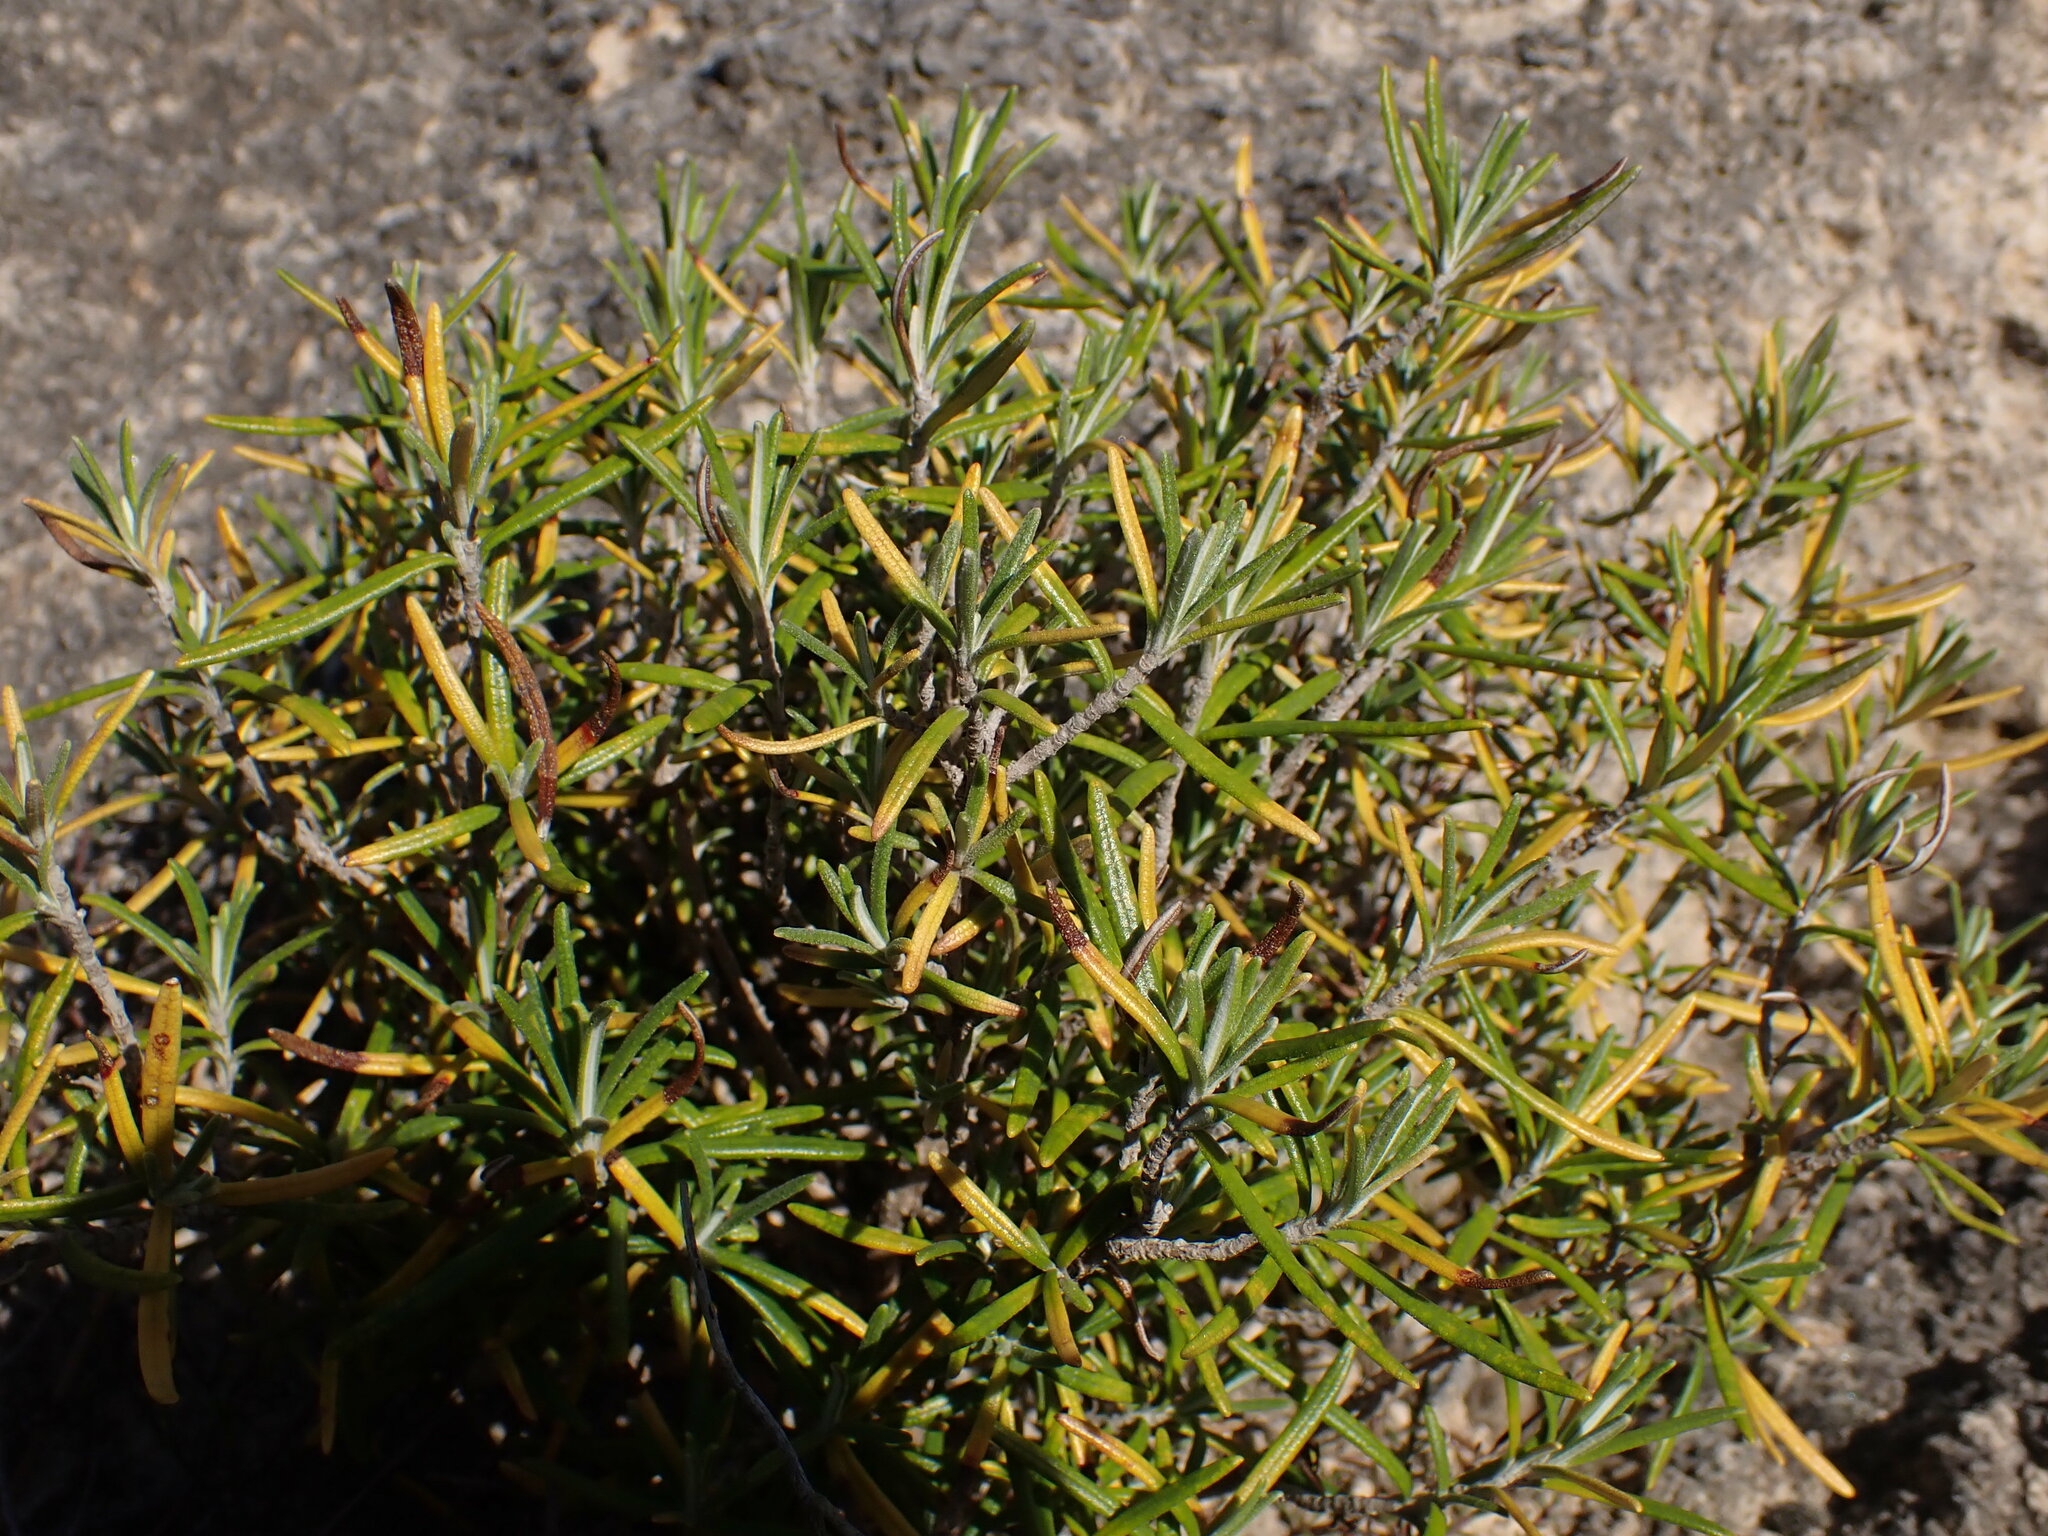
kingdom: Plantae
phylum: Tracheophyta
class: Magnoliopsida
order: Lamiales
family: Lamiaceae
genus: Salvia
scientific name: Salvia rosmarinus
